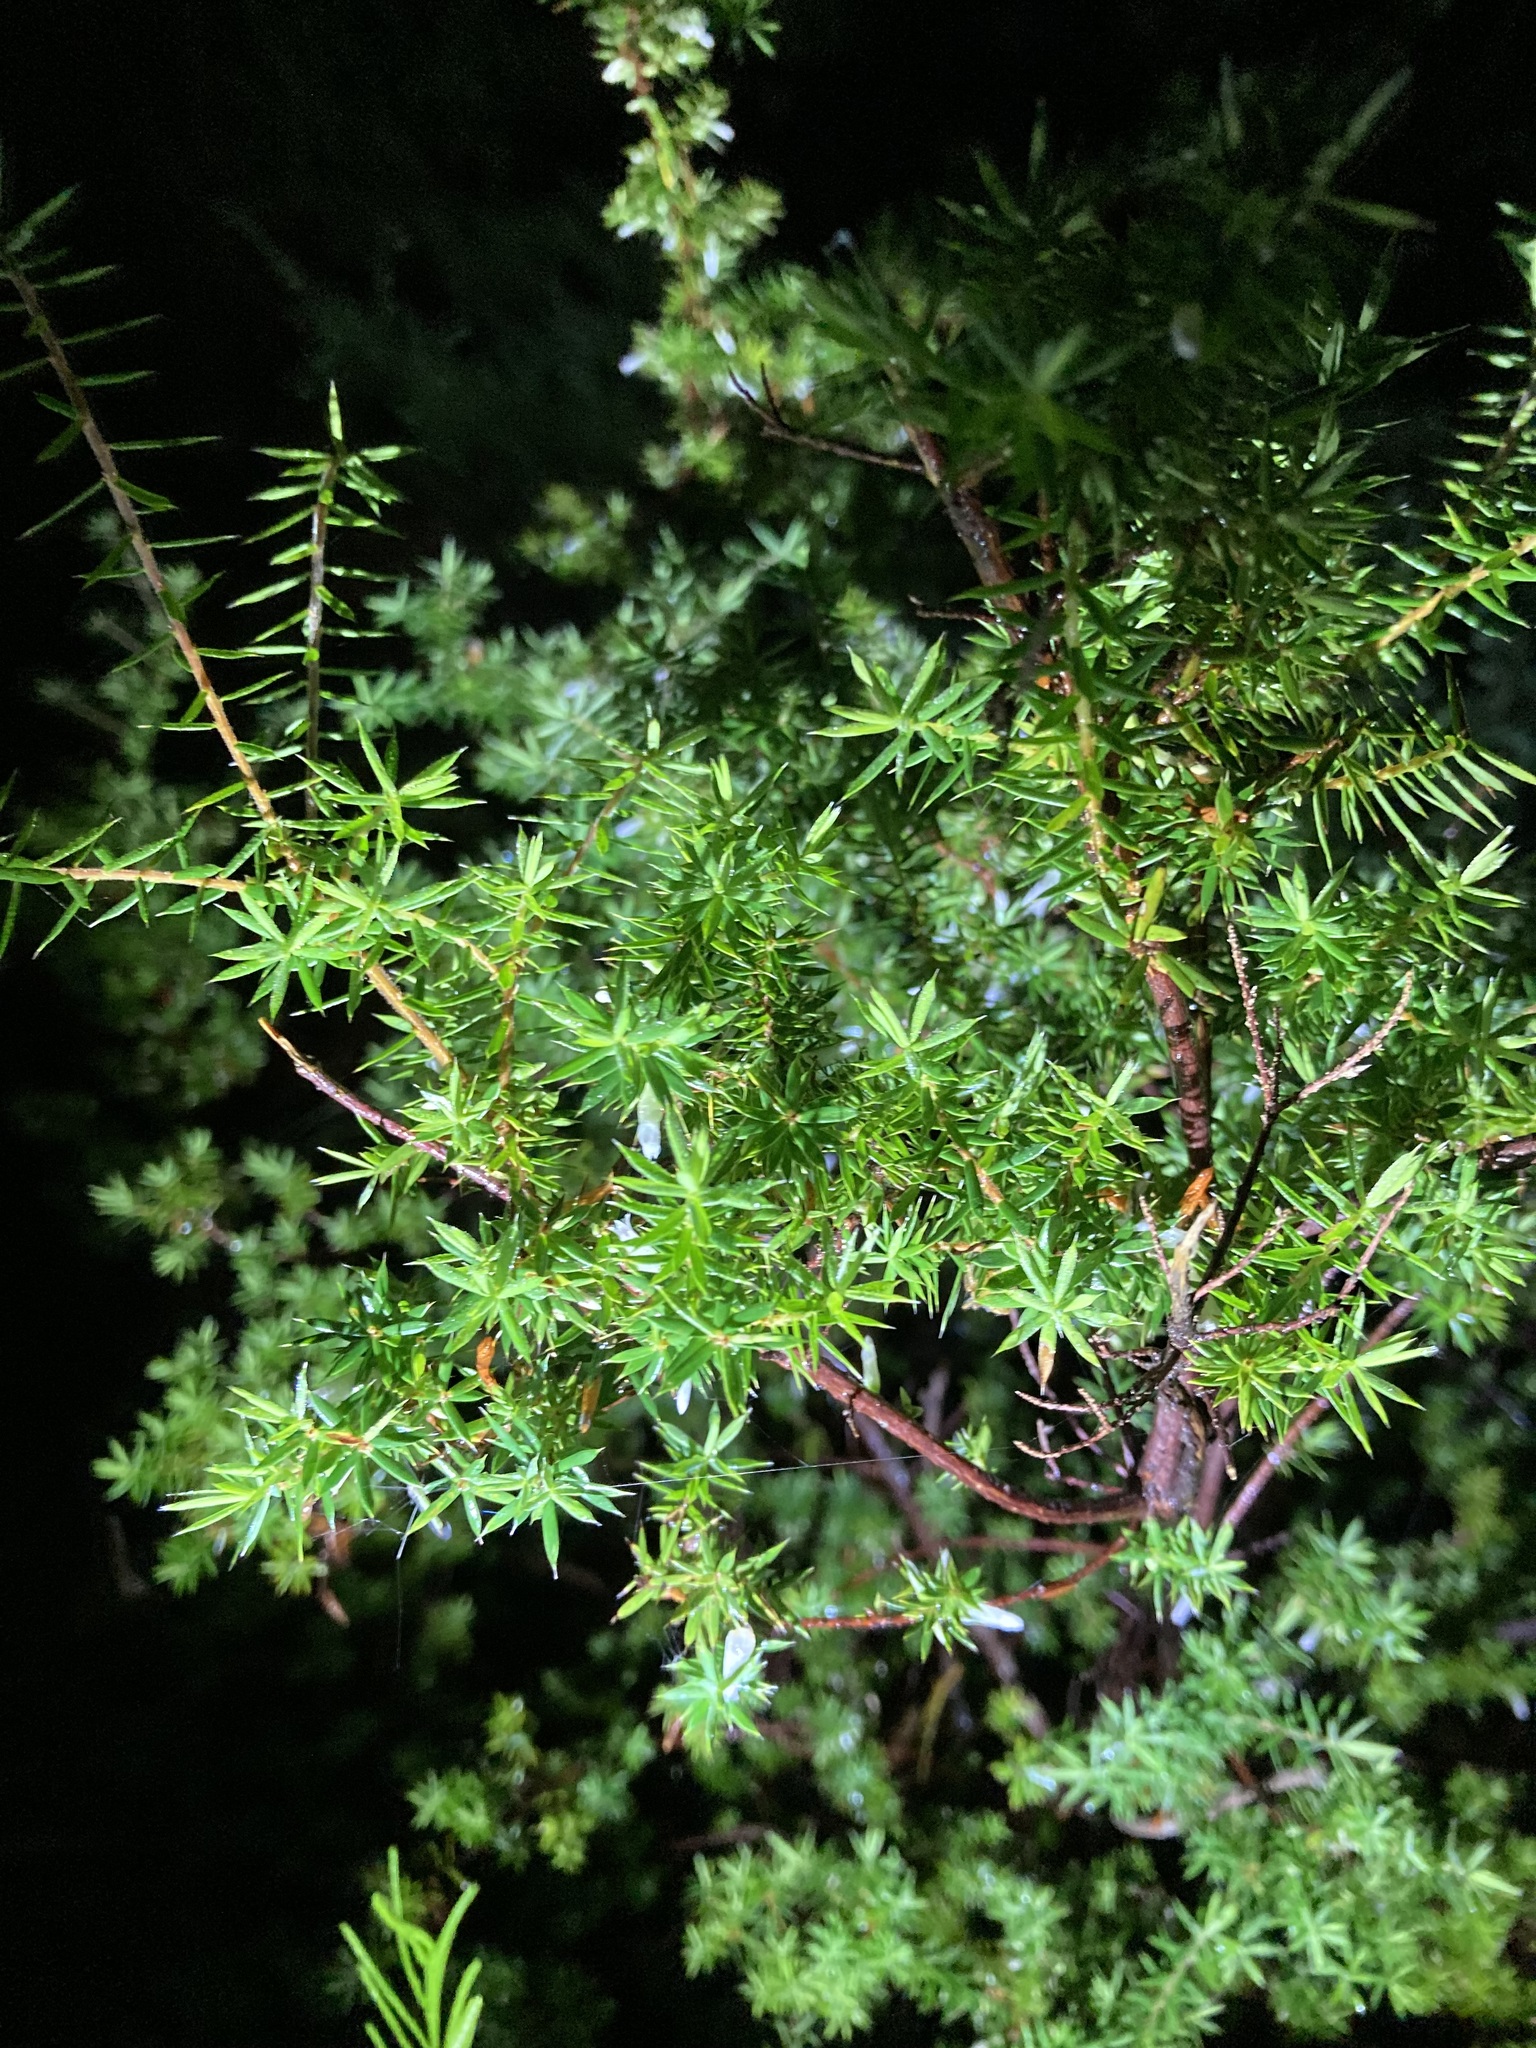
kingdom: Plantae
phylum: Tracheophyta
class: Magnoliopsida
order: Ericales
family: Ericaceae
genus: Styphelia
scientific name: Styphelia sieberi
